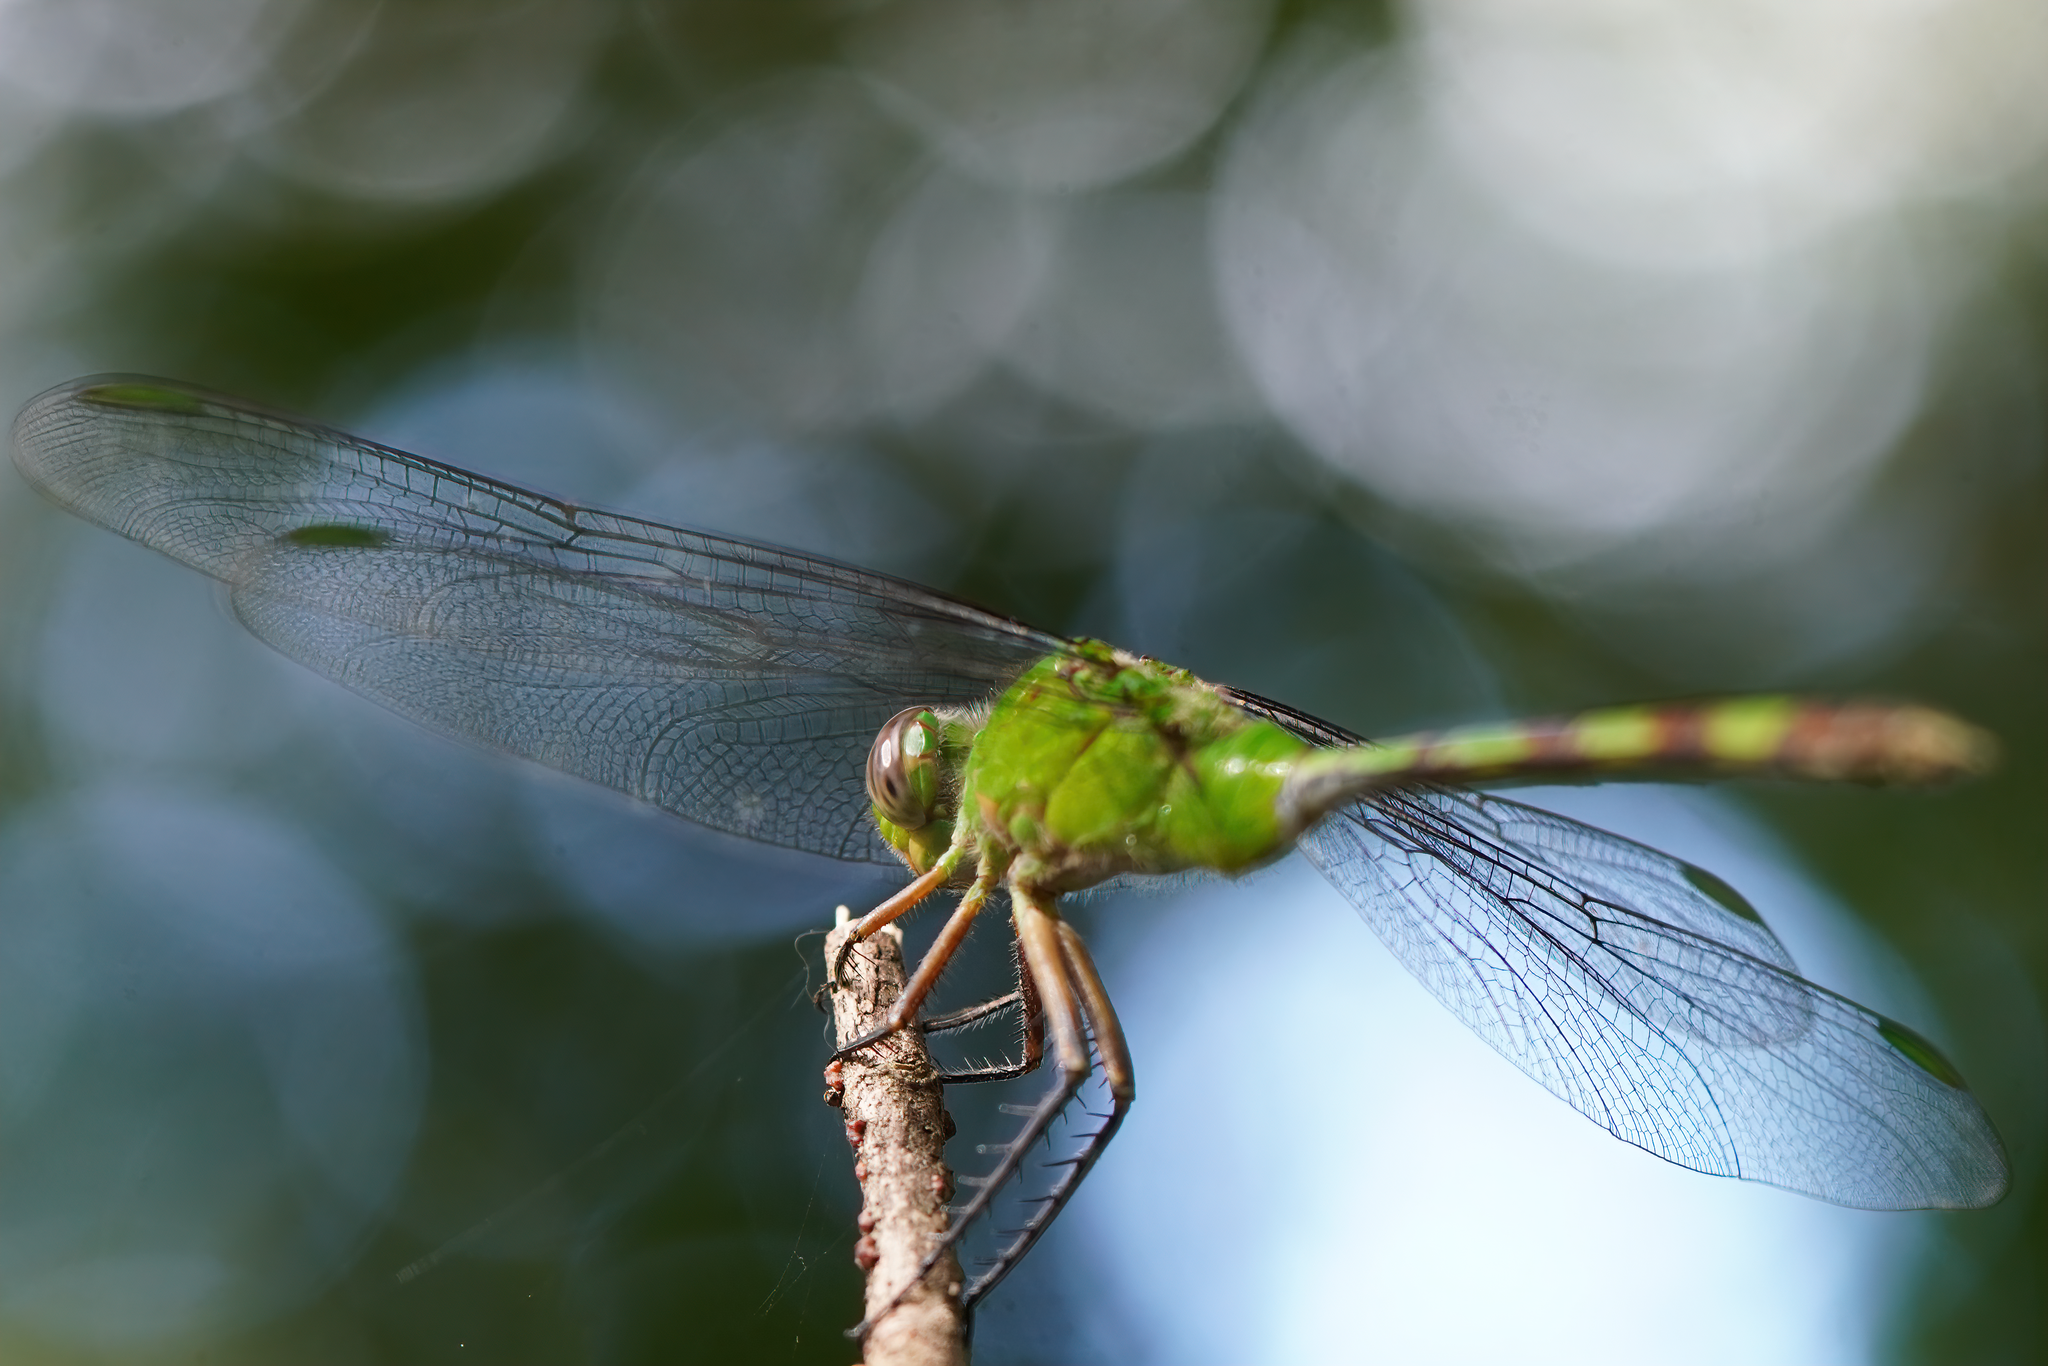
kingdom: Animalia
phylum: Arthropoda
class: Insecta
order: Odonata
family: Libellulidae
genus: Erythemis
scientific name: Erythemis vesiculosa
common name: Great pondhawk
